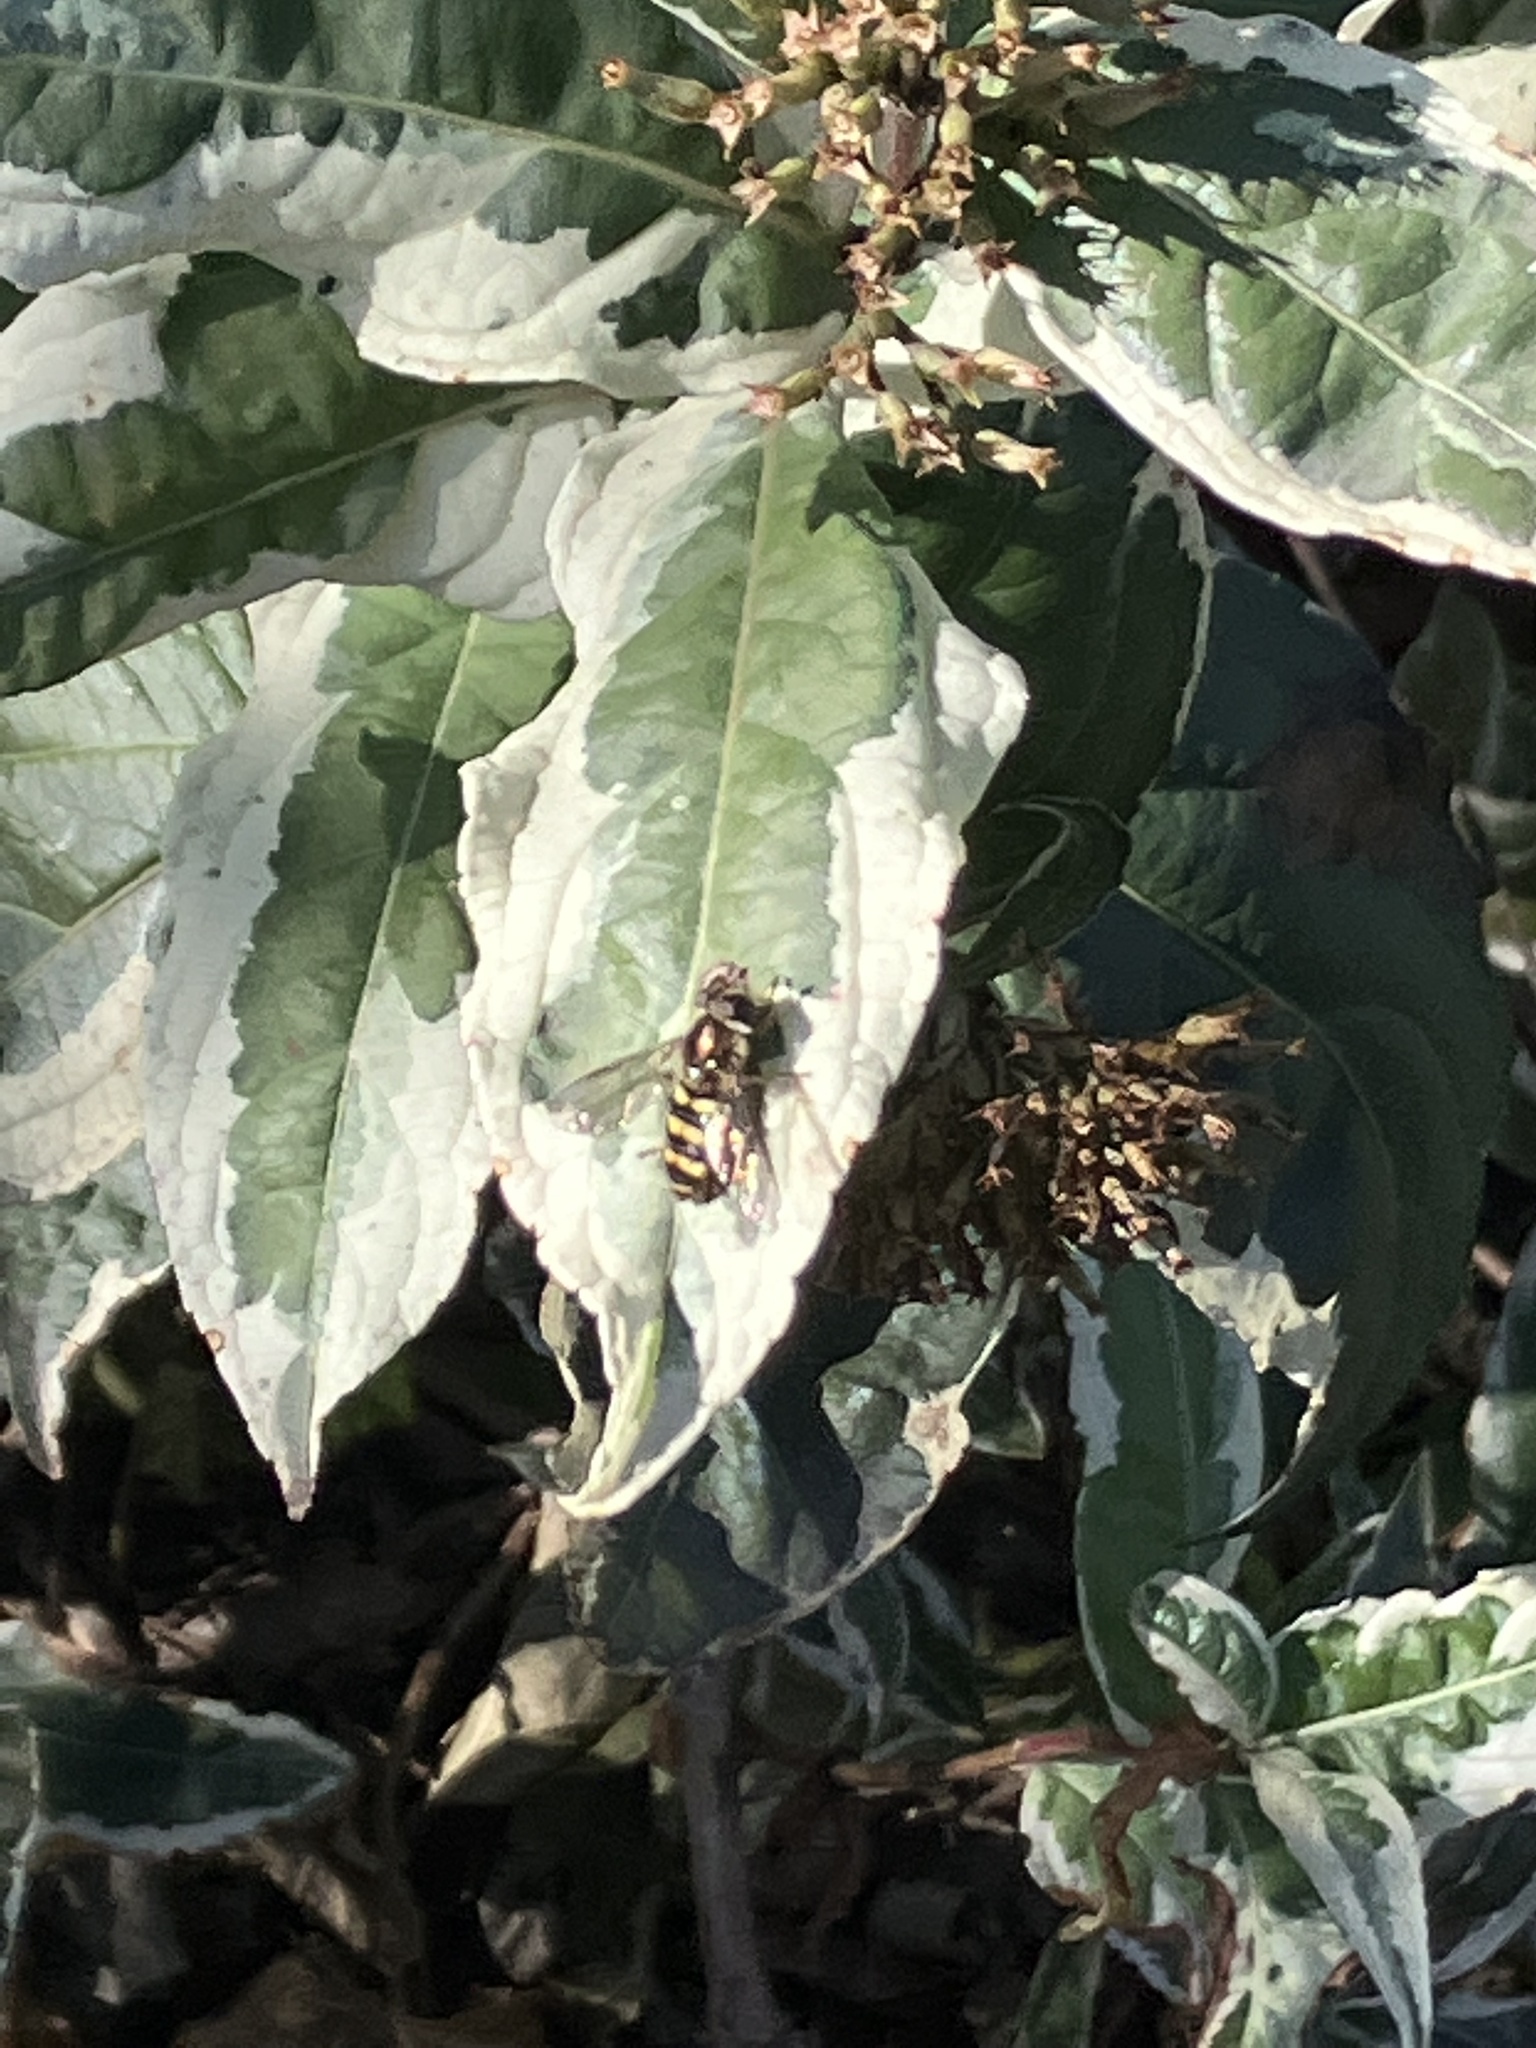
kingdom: Animalia
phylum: Arthropoda
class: Insecta
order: Diptera
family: Syrphidae
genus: Eupeodes
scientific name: Eupeodes
